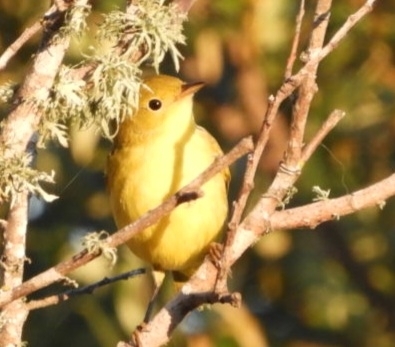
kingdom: Animalia
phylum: Chordata
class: Aves
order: Passeriformes
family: Parulidae
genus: Setophaga
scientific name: Setophaga petechia
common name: Yellow warbler
